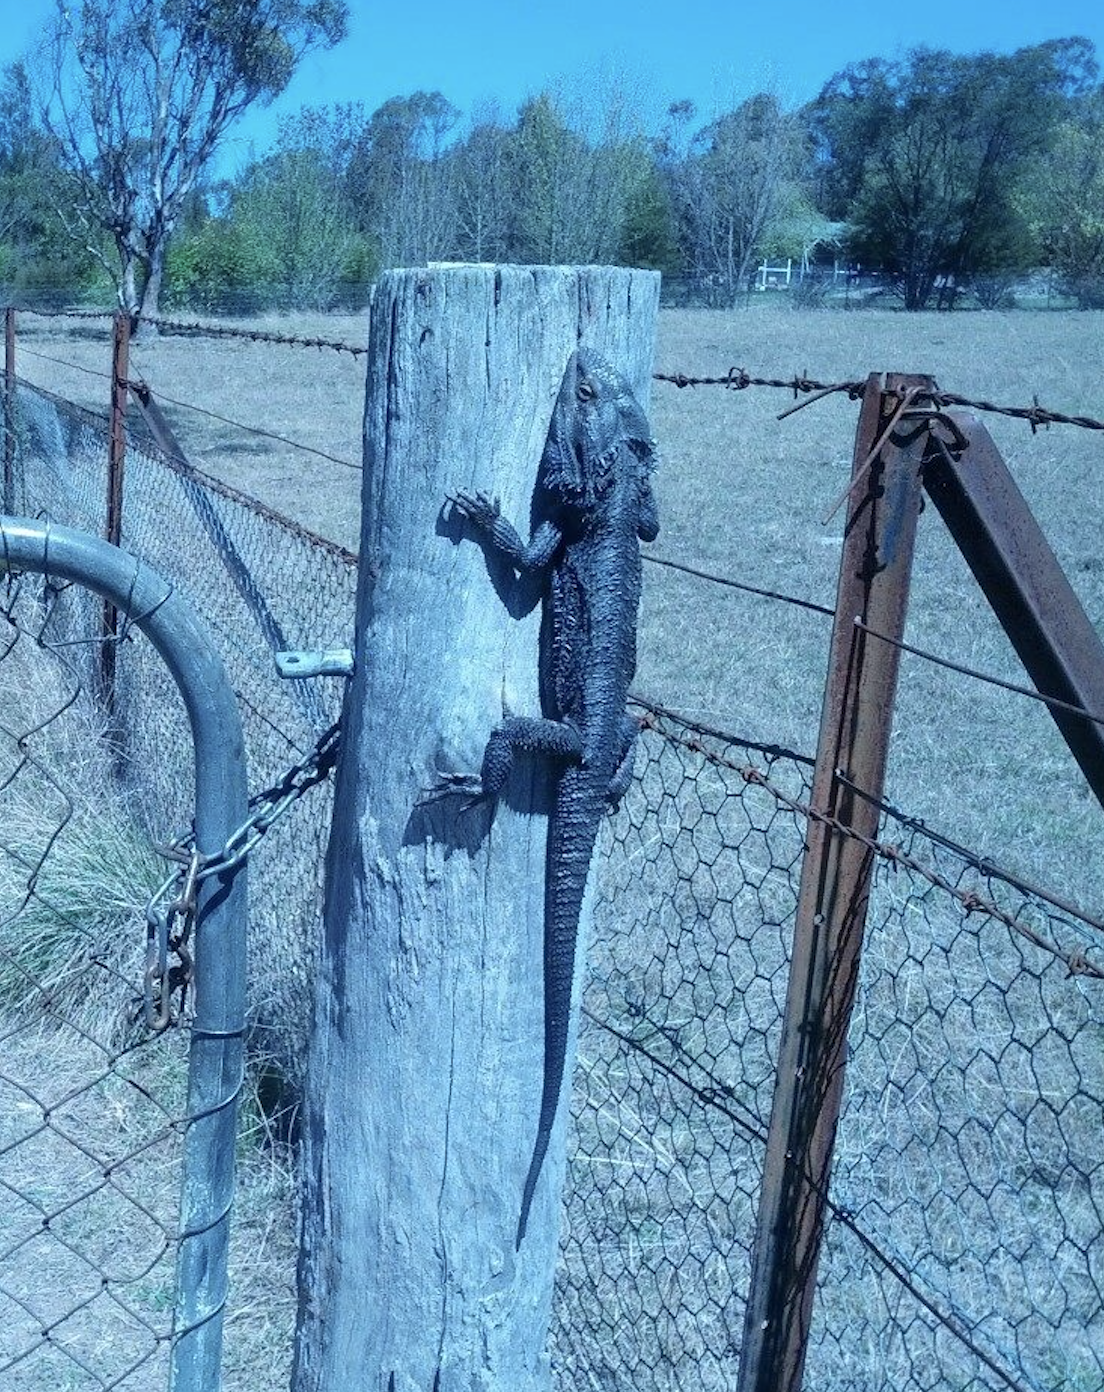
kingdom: Animalia
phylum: Chordata
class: Squamata
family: Agamidae
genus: Pogona
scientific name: Pogona barbata
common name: Bearded dragon
